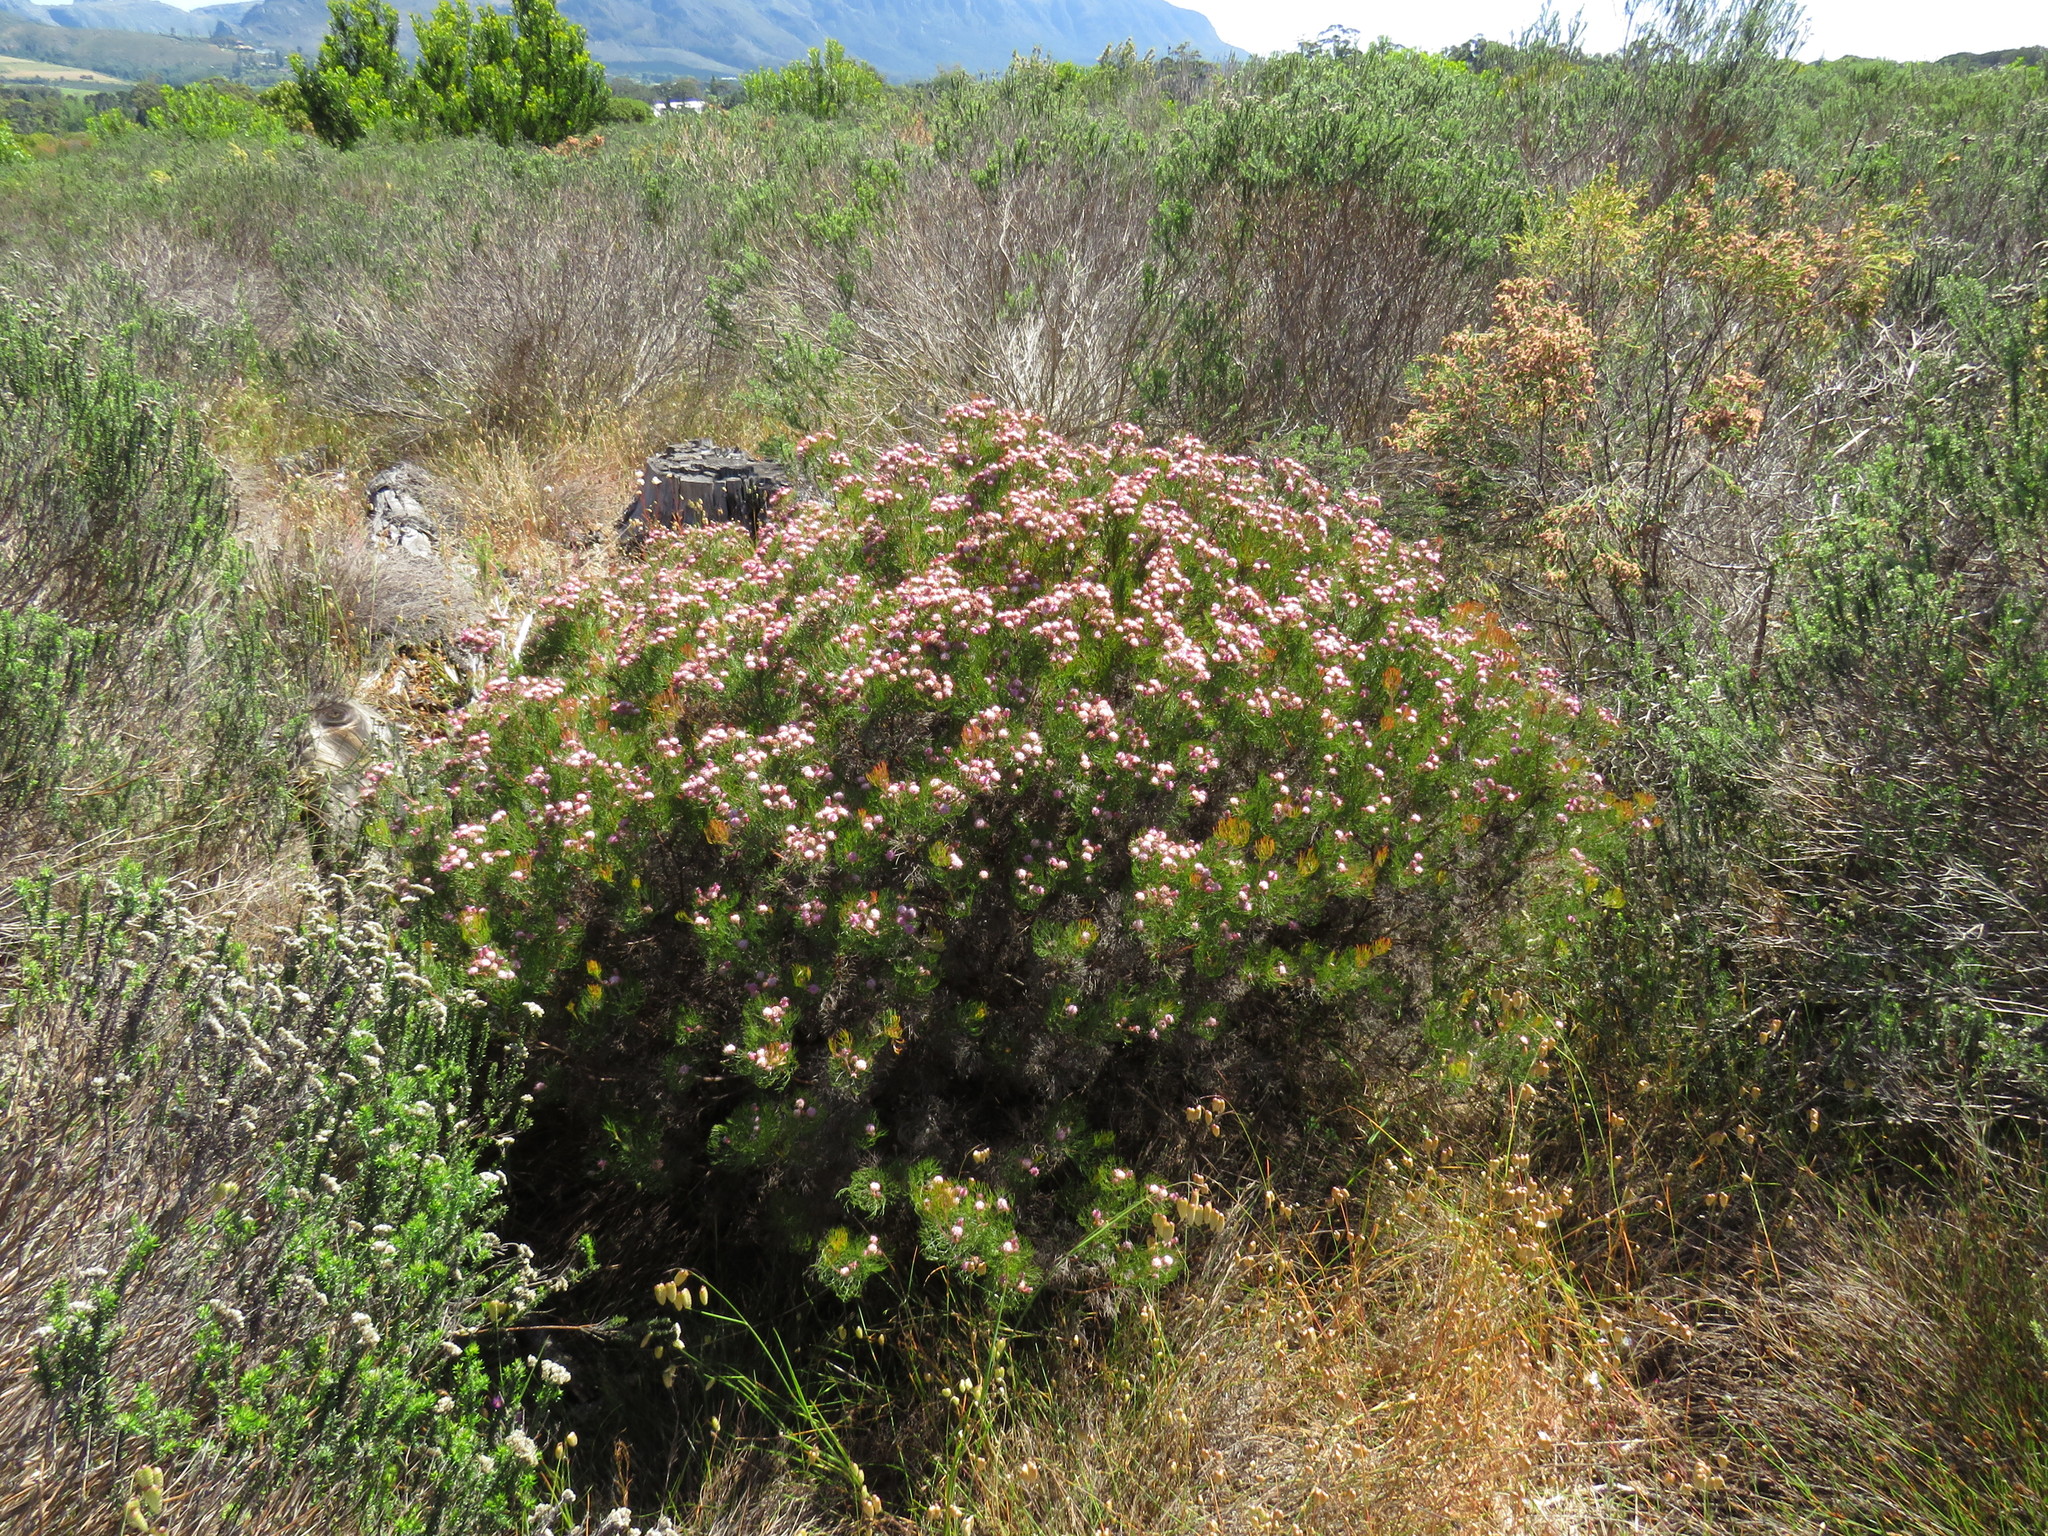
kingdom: Plantae
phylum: Tracheophyta
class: Magnoliopsida
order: Proteales
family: Proteaceae
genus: Serruria
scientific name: Serruria fasciflora
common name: Common pin spiderhead
